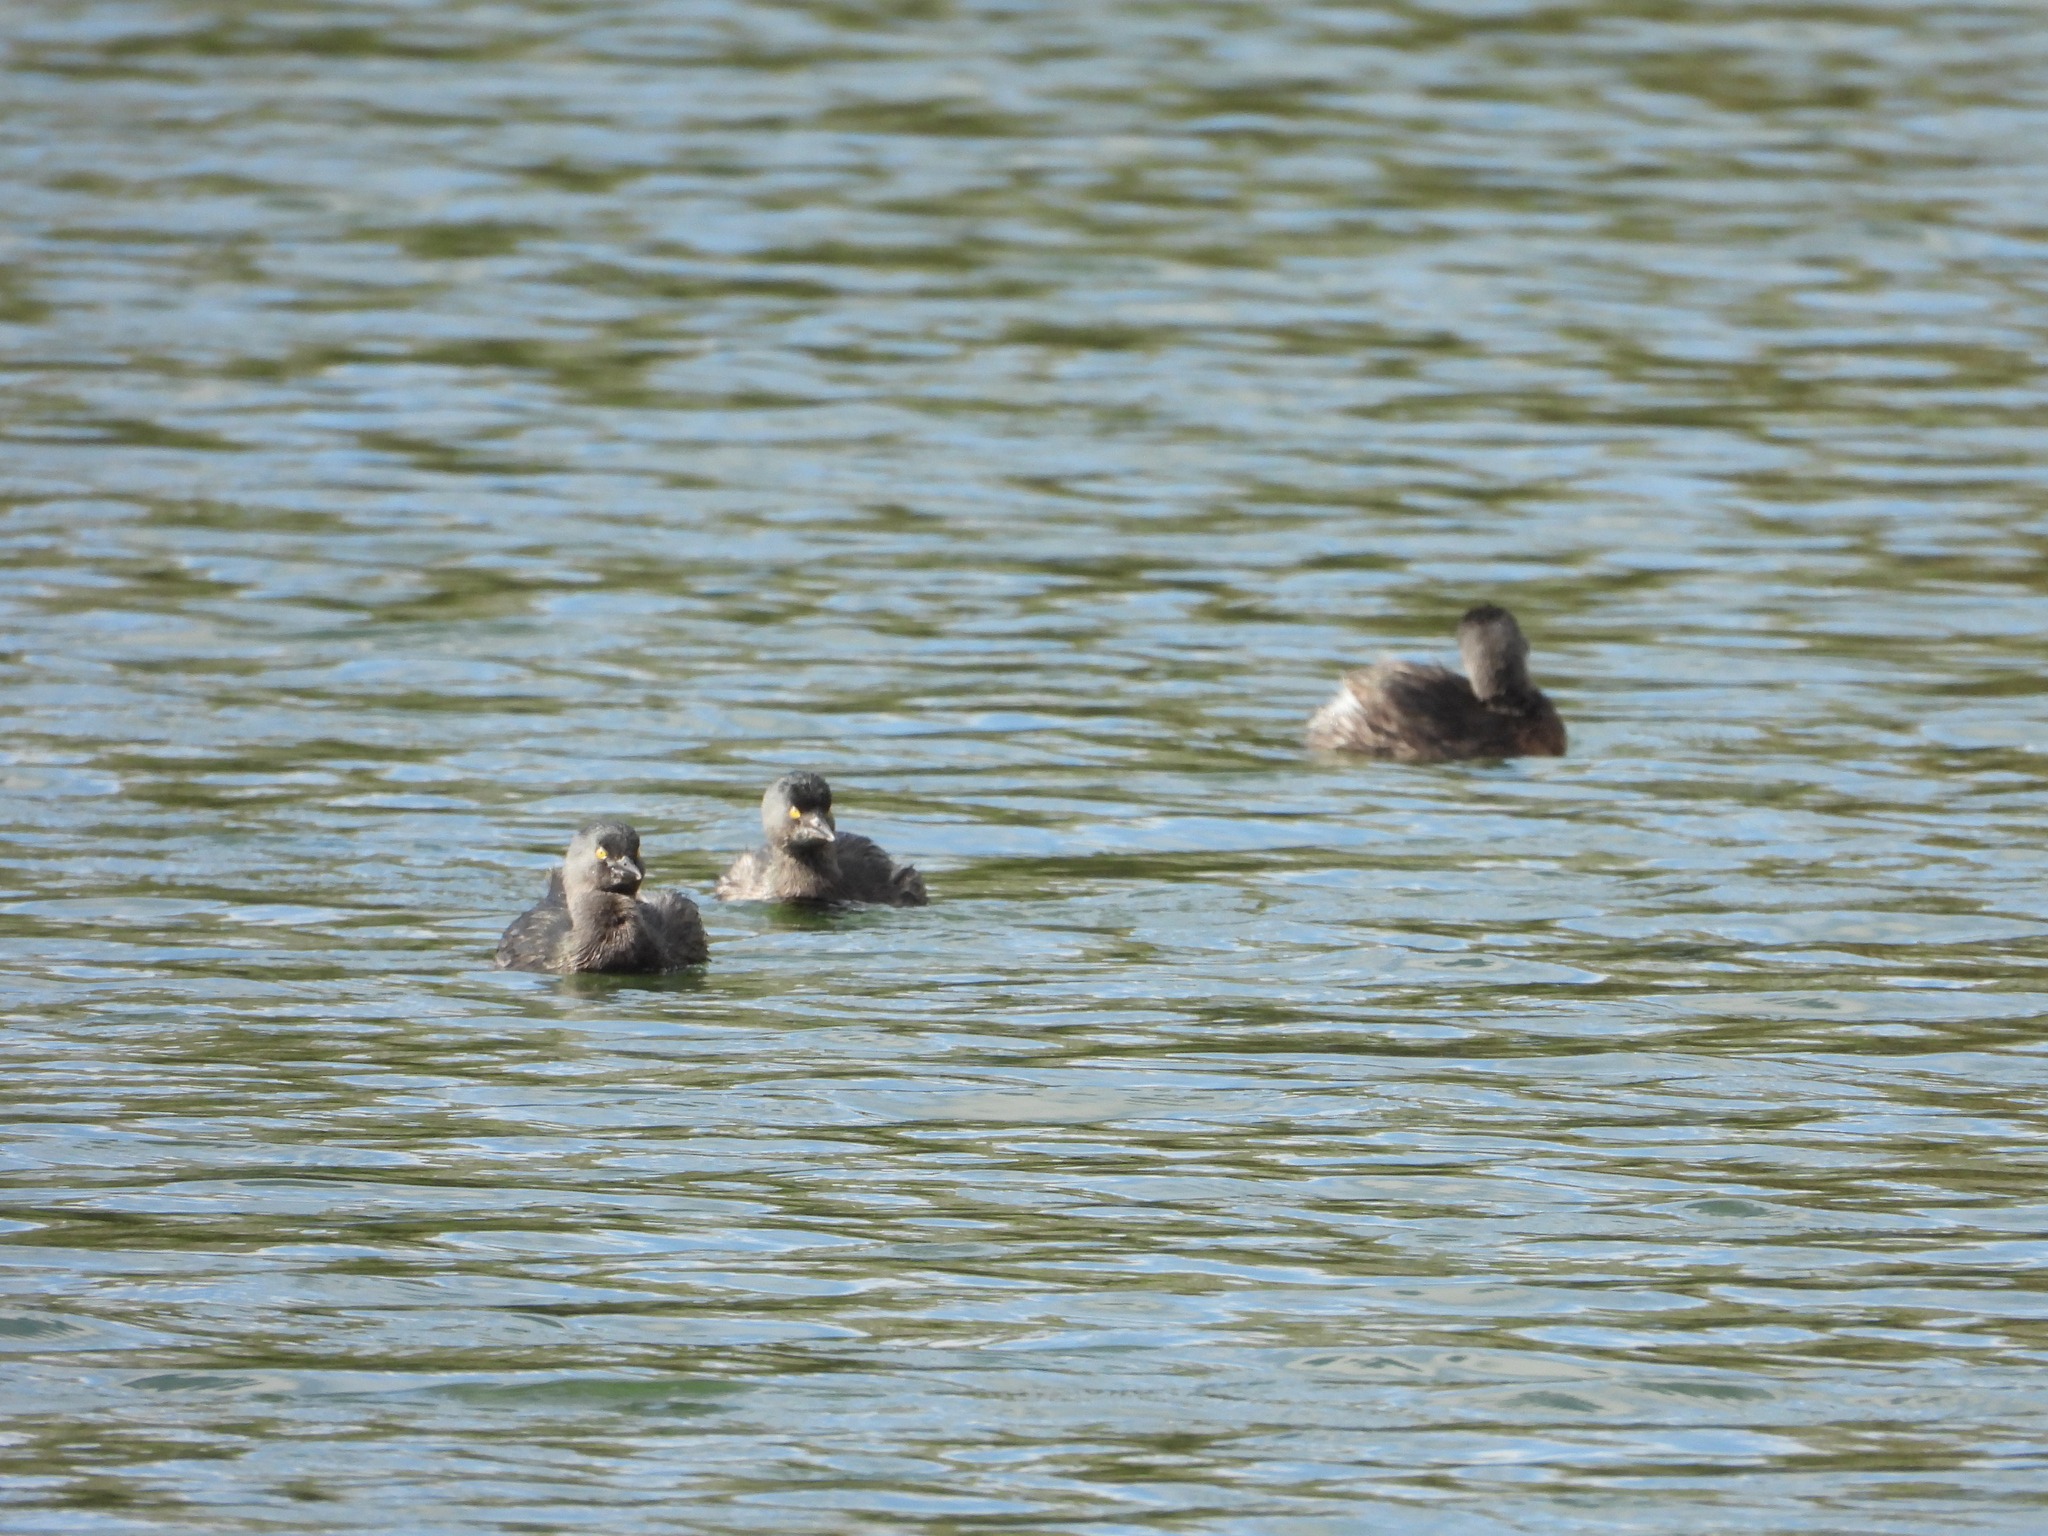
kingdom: Animalia
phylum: Chordata
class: Aves
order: Podicipediformes
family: Podicipedidae
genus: Tachybaptus
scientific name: Tachybaptus dominicus
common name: Least grebe
